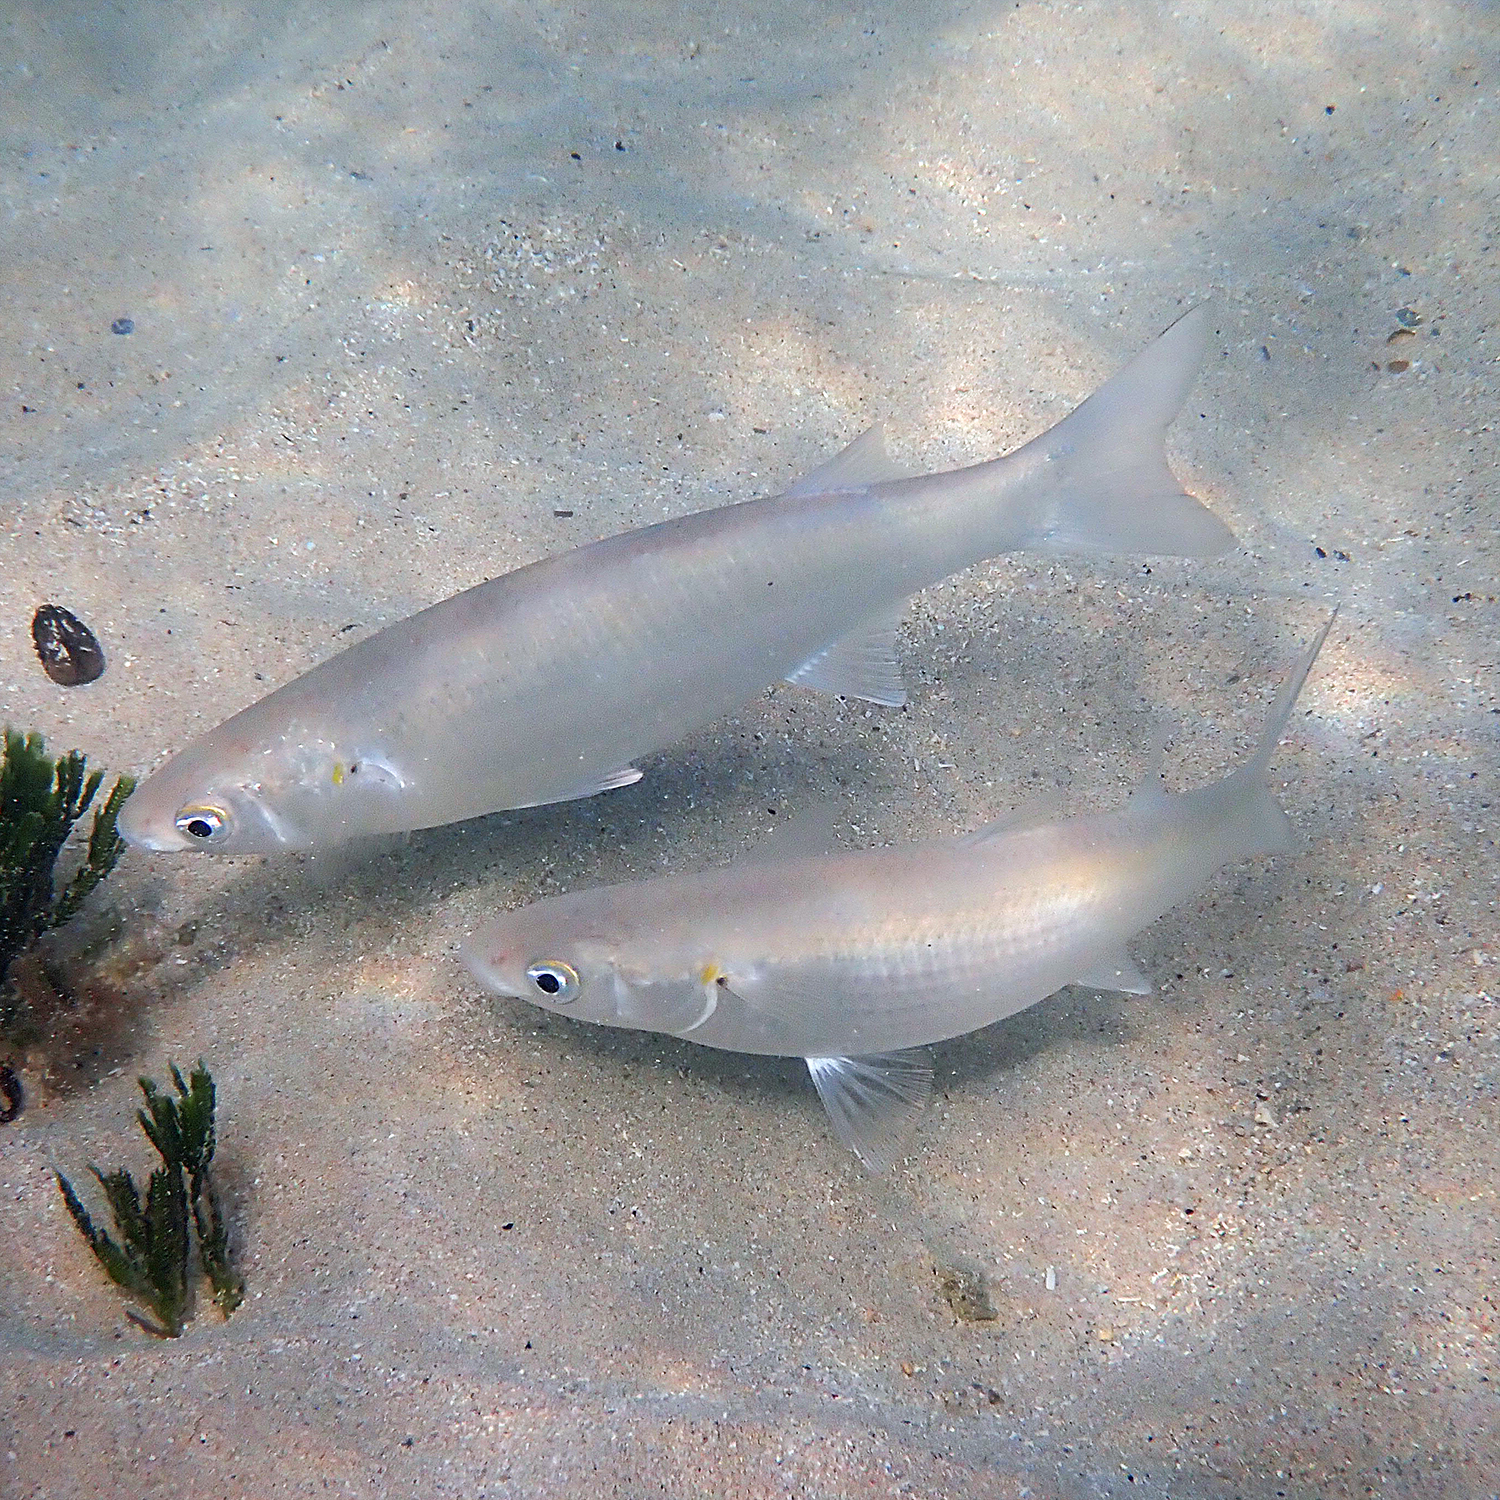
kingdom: Animalia
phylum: Chordata
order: Mugiliformes
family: Mugilidae
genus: Myxus
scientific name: Myxus elongatus
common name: Sand grey mullet
